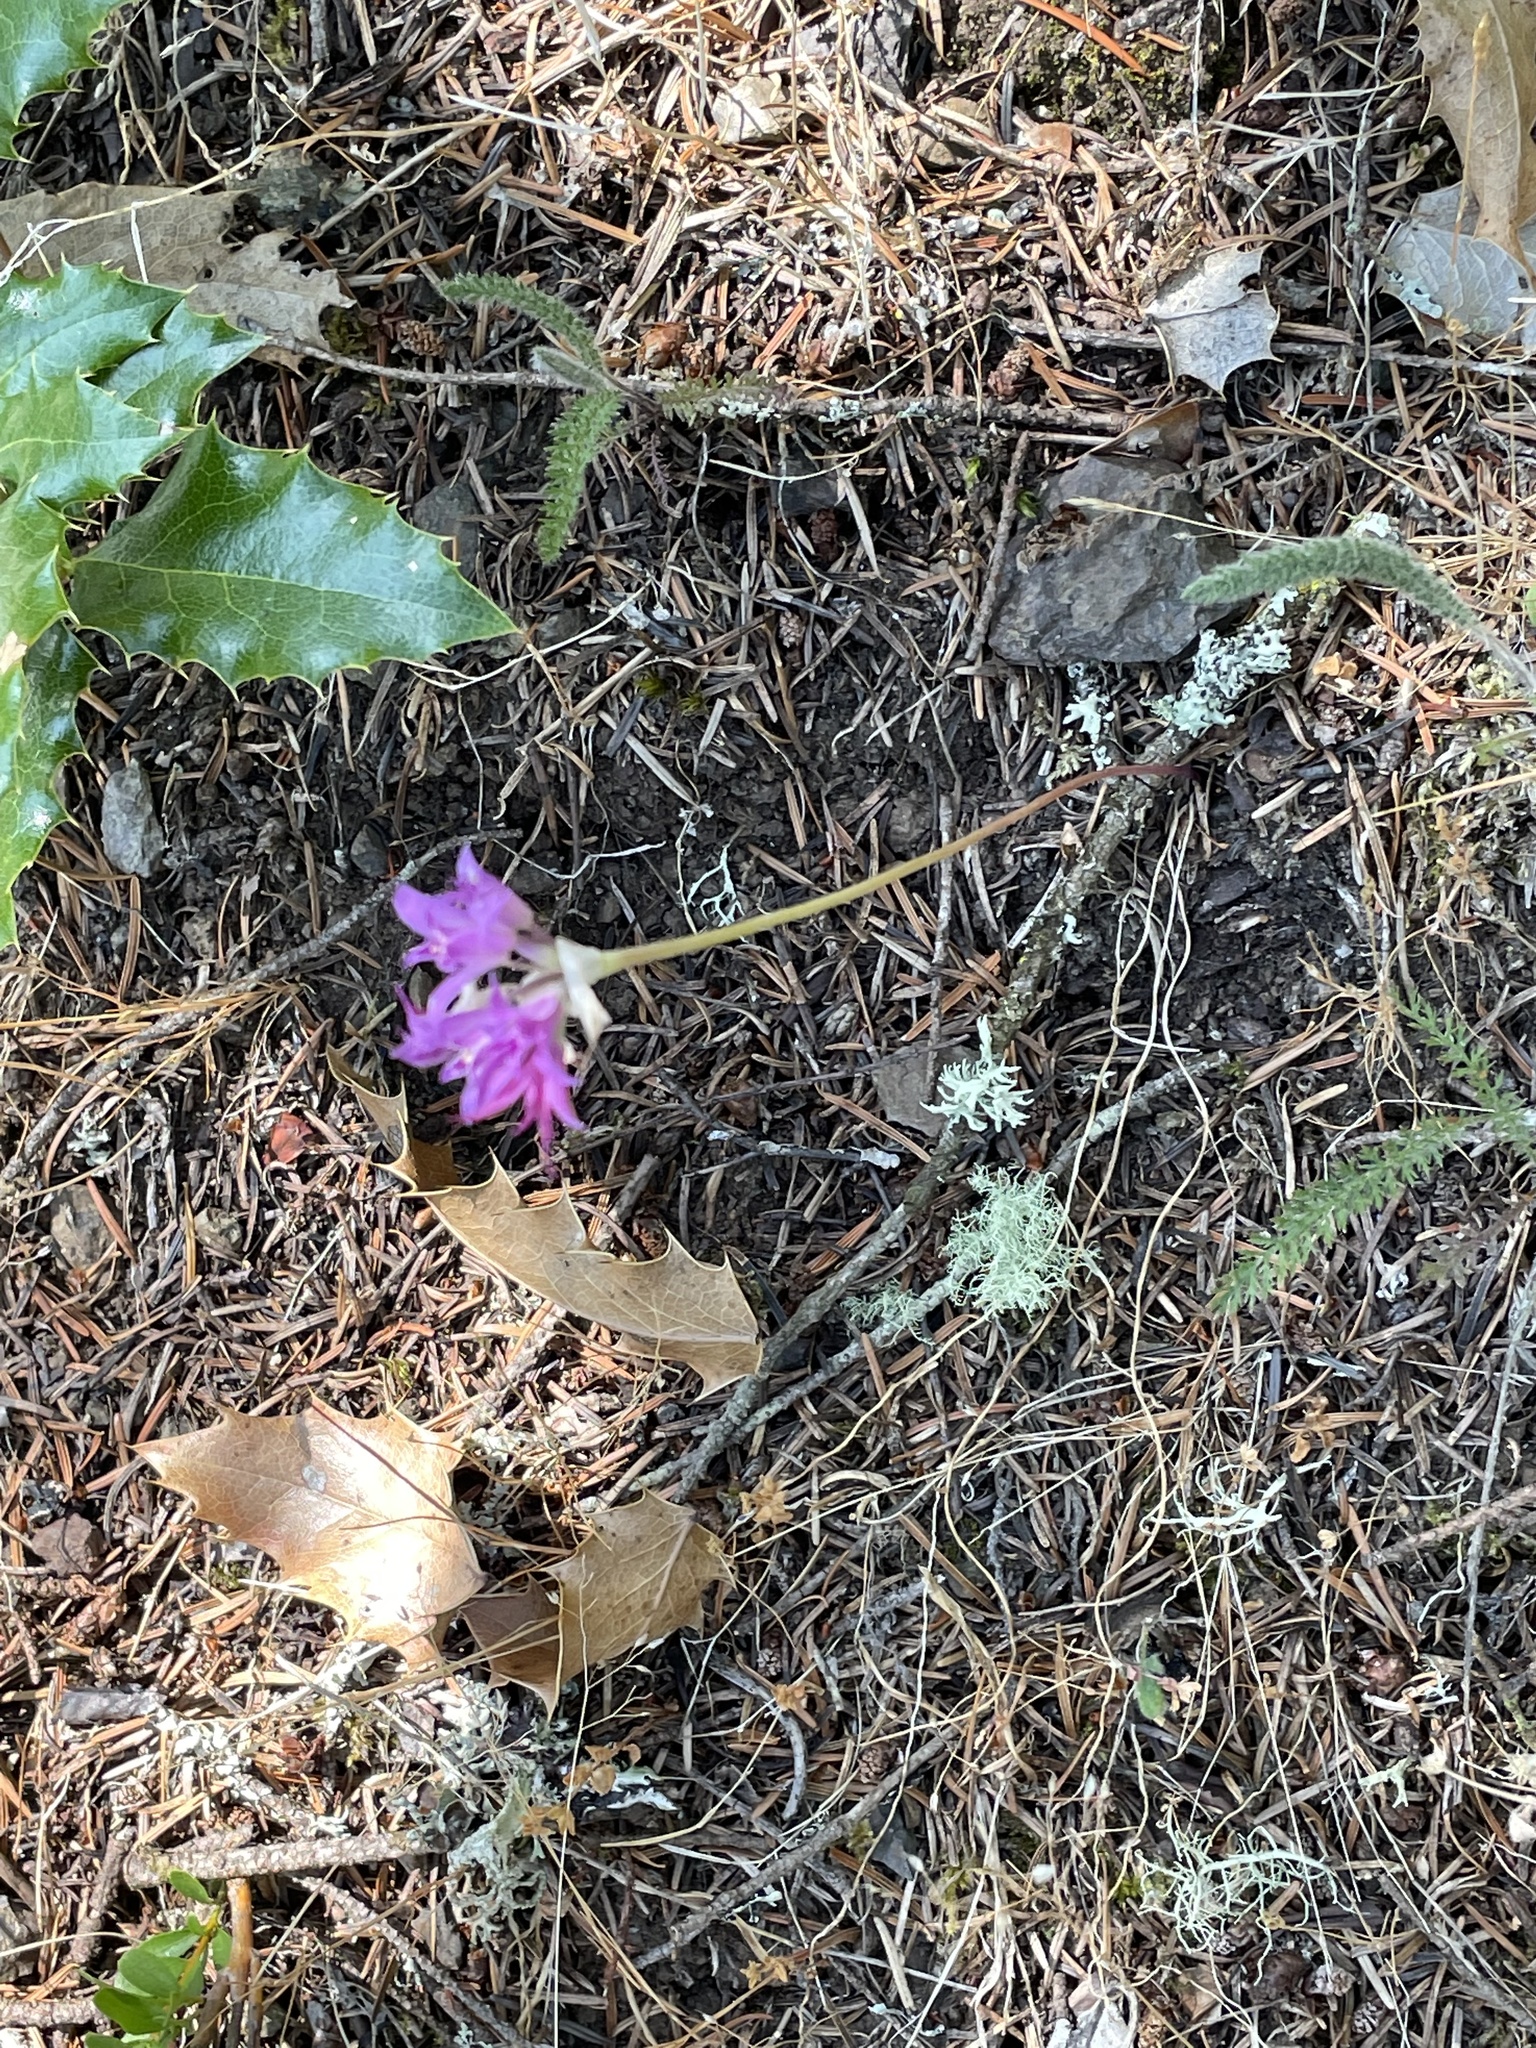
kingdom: Plantae
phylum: Tracheophyta
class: Liliopsida
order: Asparagales
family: Amaryllidaceae
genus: Allium
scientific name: Allium acuminatum
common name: Hooker's onion
